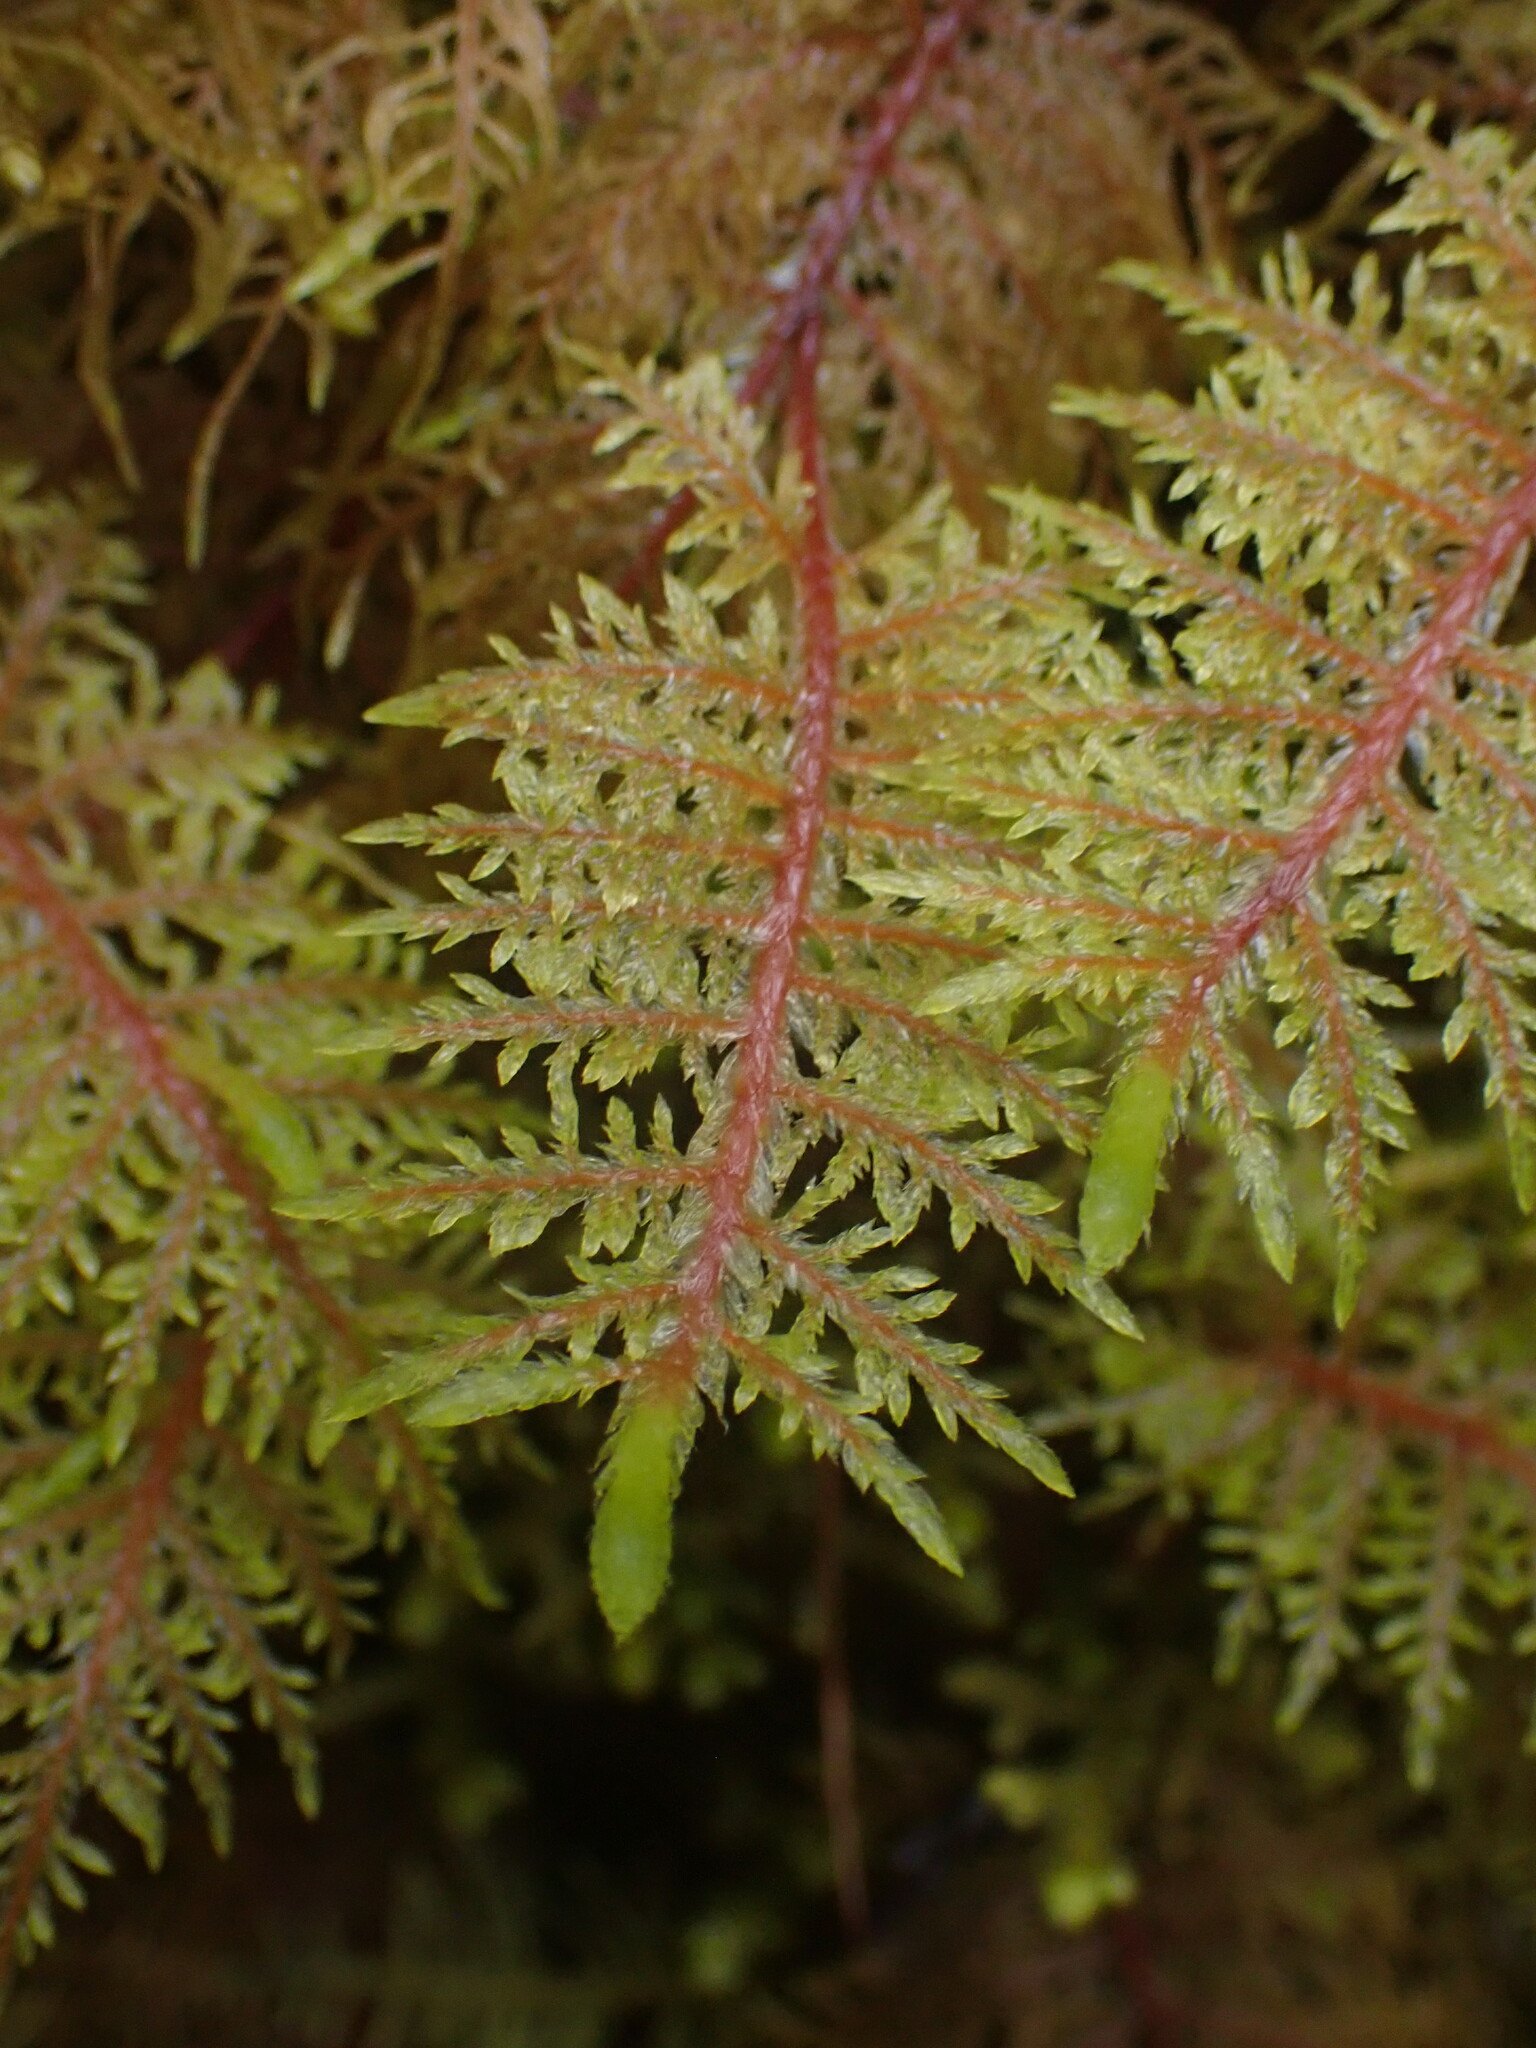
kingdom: Plantae
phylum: Bryophyta
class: Bryopsida
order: Hypnales
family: Hylocomiaceae
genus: Hylocomium
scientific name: Hylocomium splendens
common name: Stairstep moss
